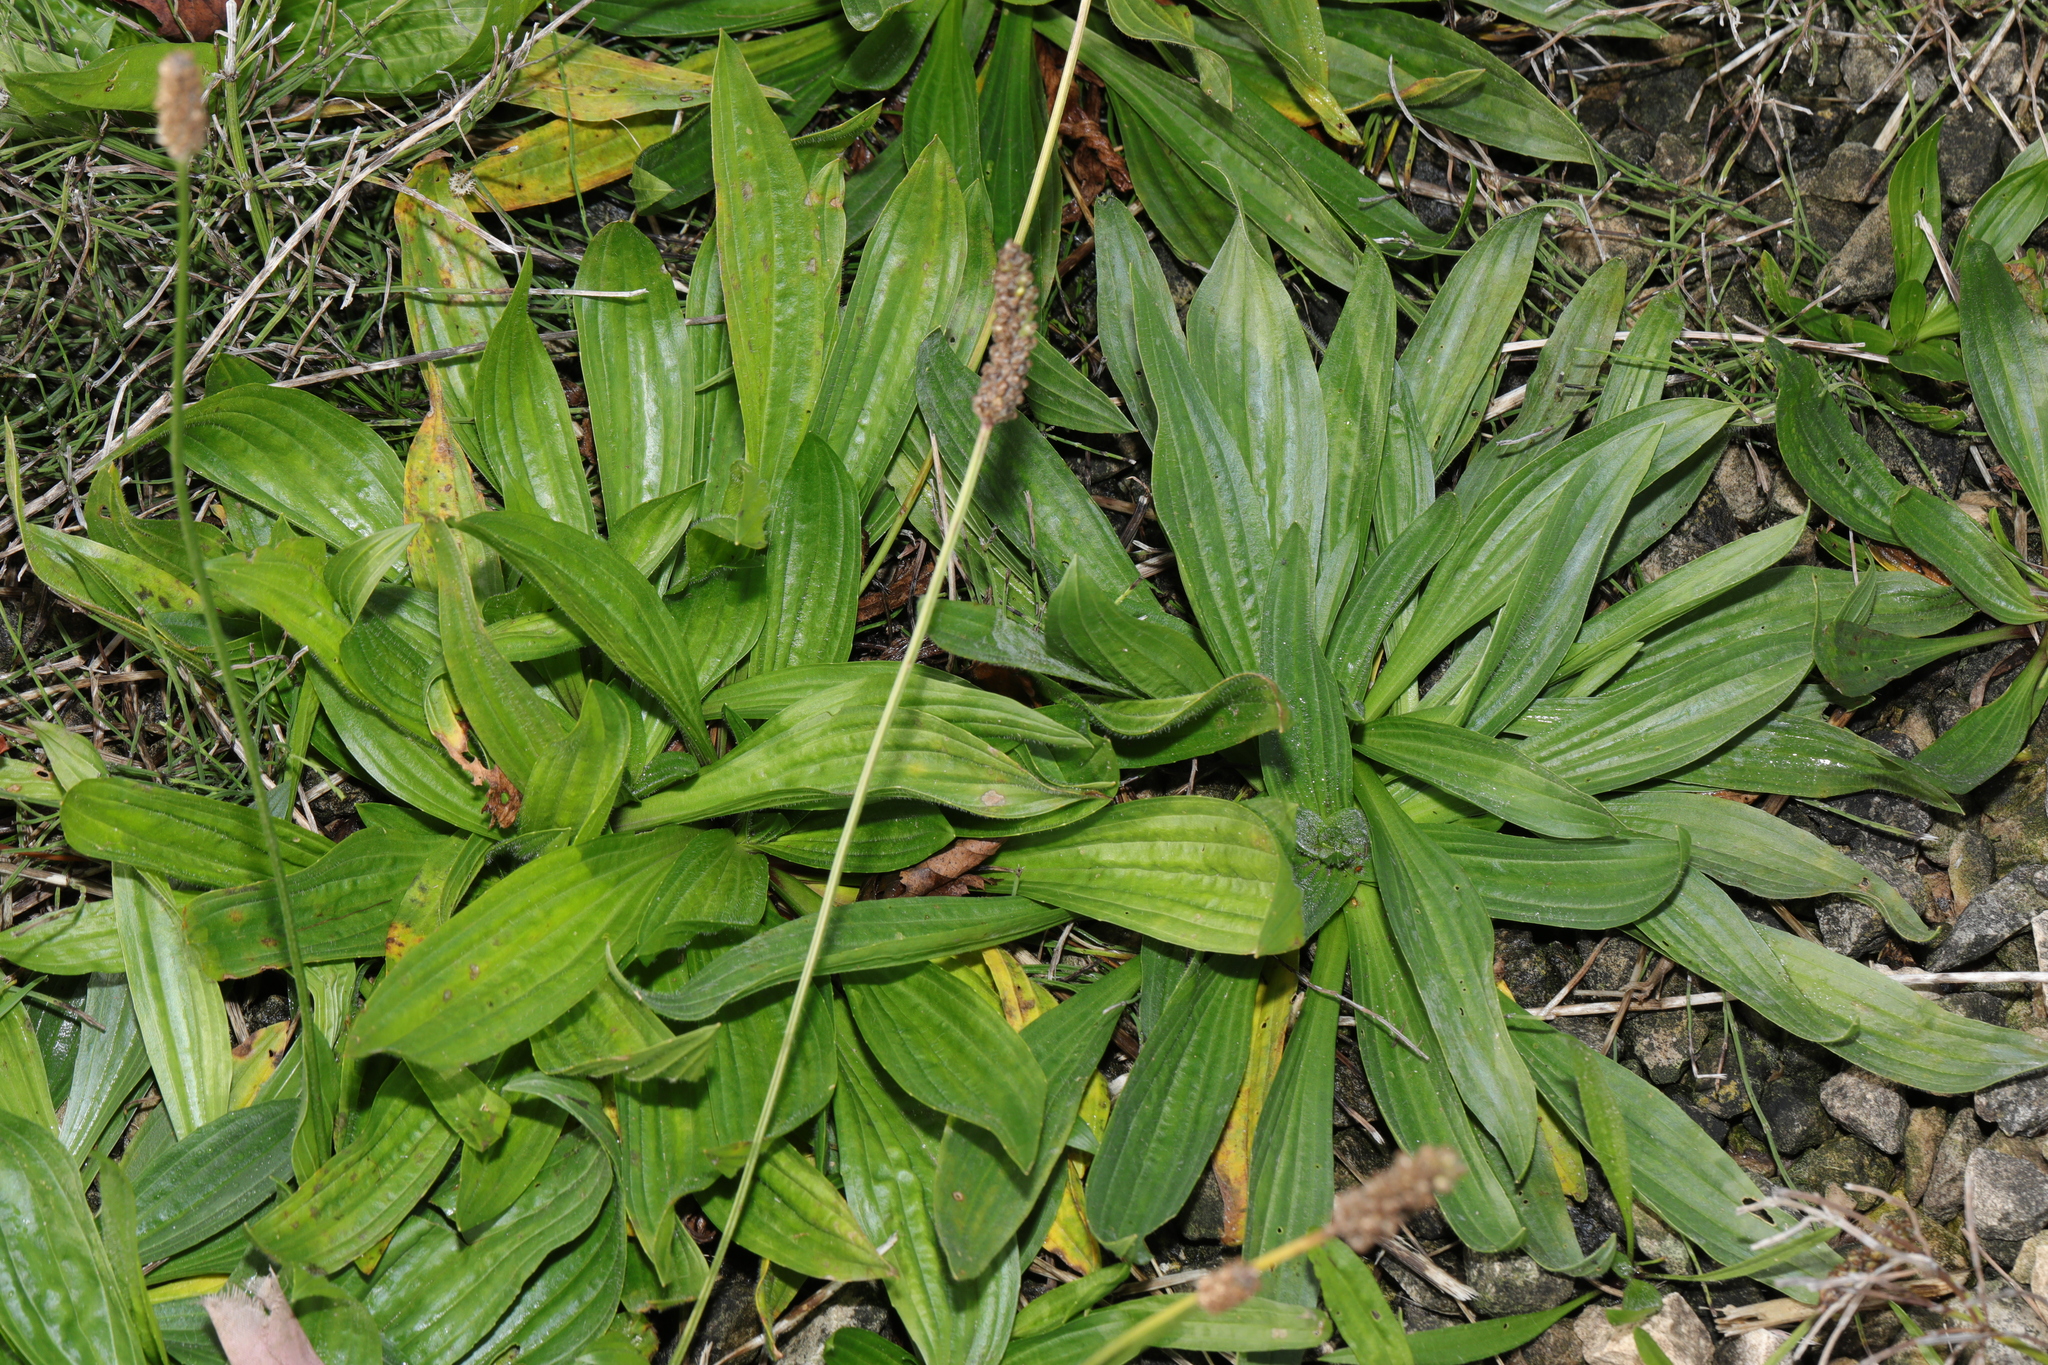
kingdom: Plantae
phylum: Tracheophyta
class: Magnoliopsida
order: Lamiales
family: Plantaginaceae
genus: Plantago
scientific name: Plantago lanceolata
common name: Ribwort plantain
